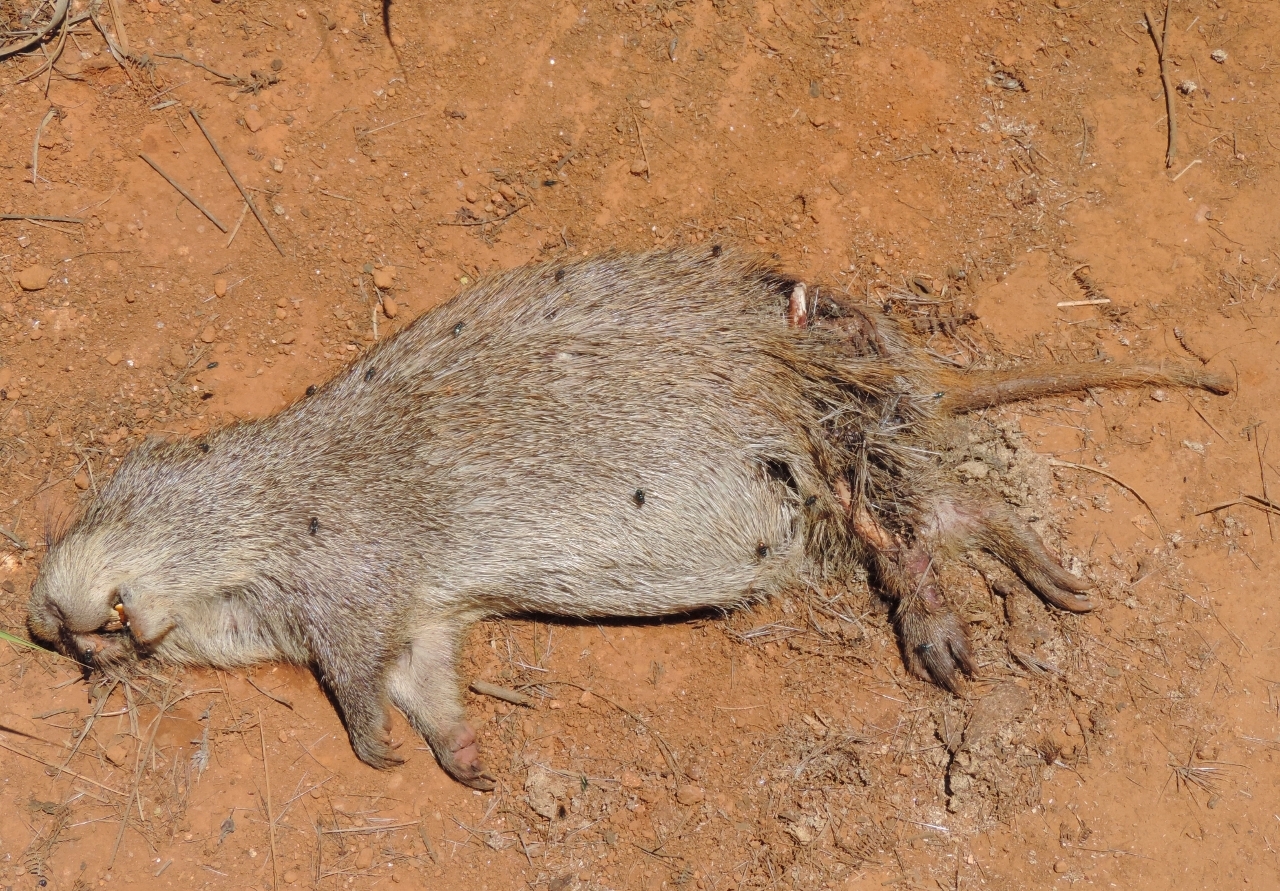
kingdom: Animalia
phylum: Chordata
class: Mammalia
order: Rodentia
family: Thryonomyidae
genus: Thryonomys
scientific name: Thryonomys swinderianus
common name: Greater cane rat
